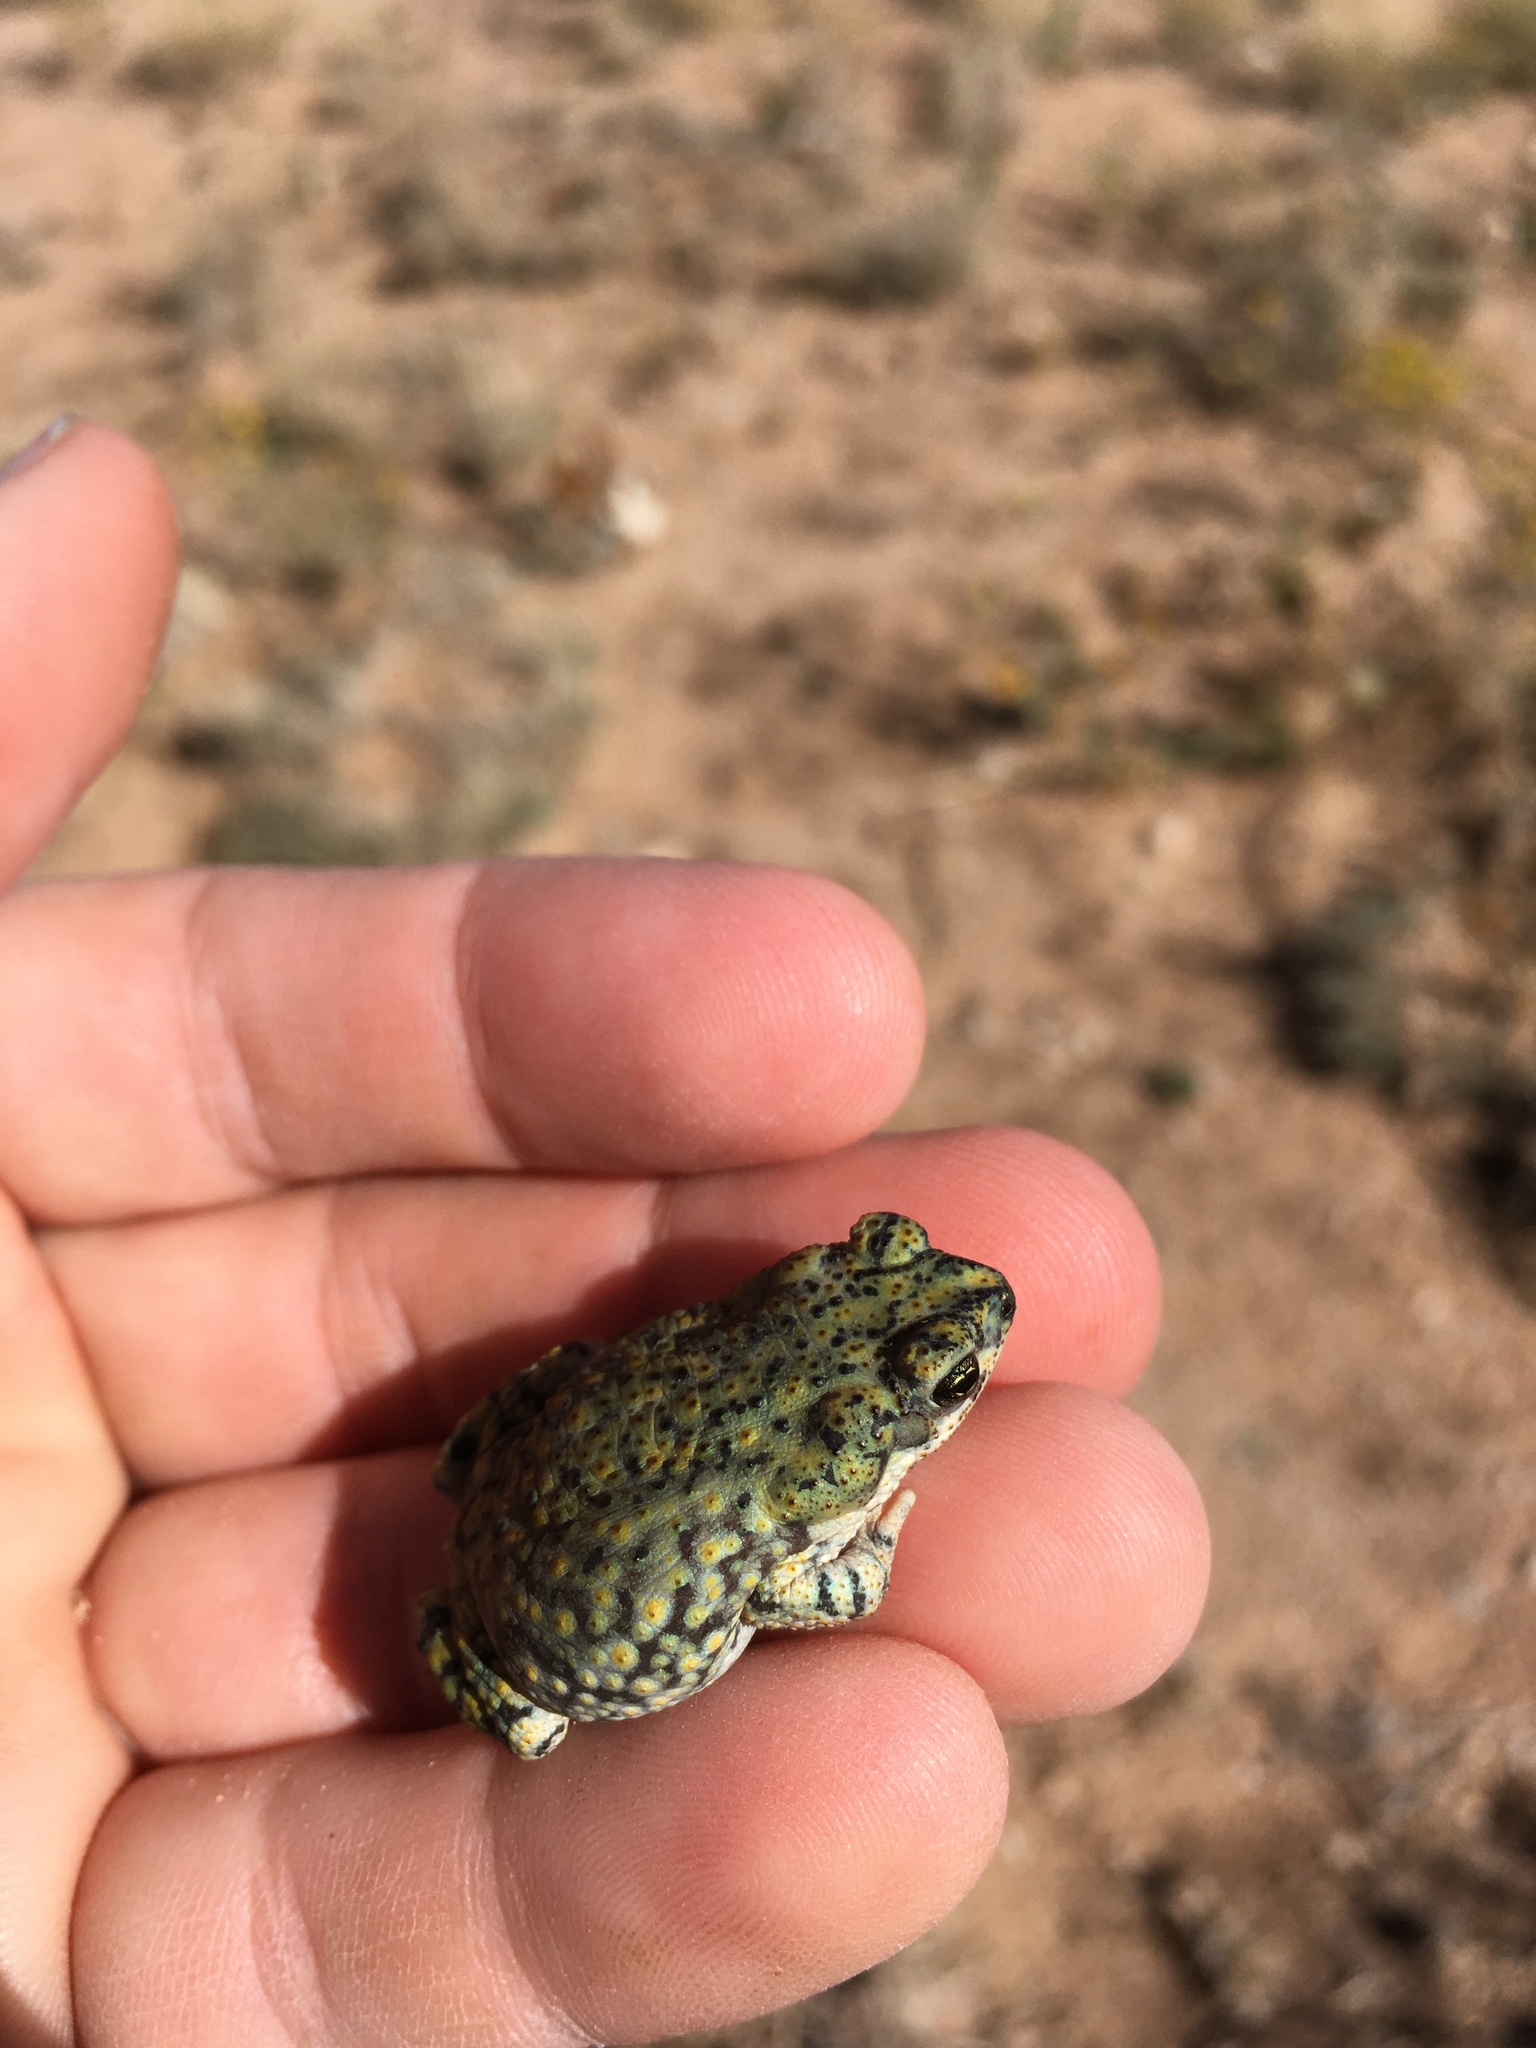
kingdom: Animalia
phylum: Chordata
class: Amphibia
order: Anura
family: Bufonidae
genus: Anaxyrus
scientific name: Anaxyrus debilis
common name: Green toad
